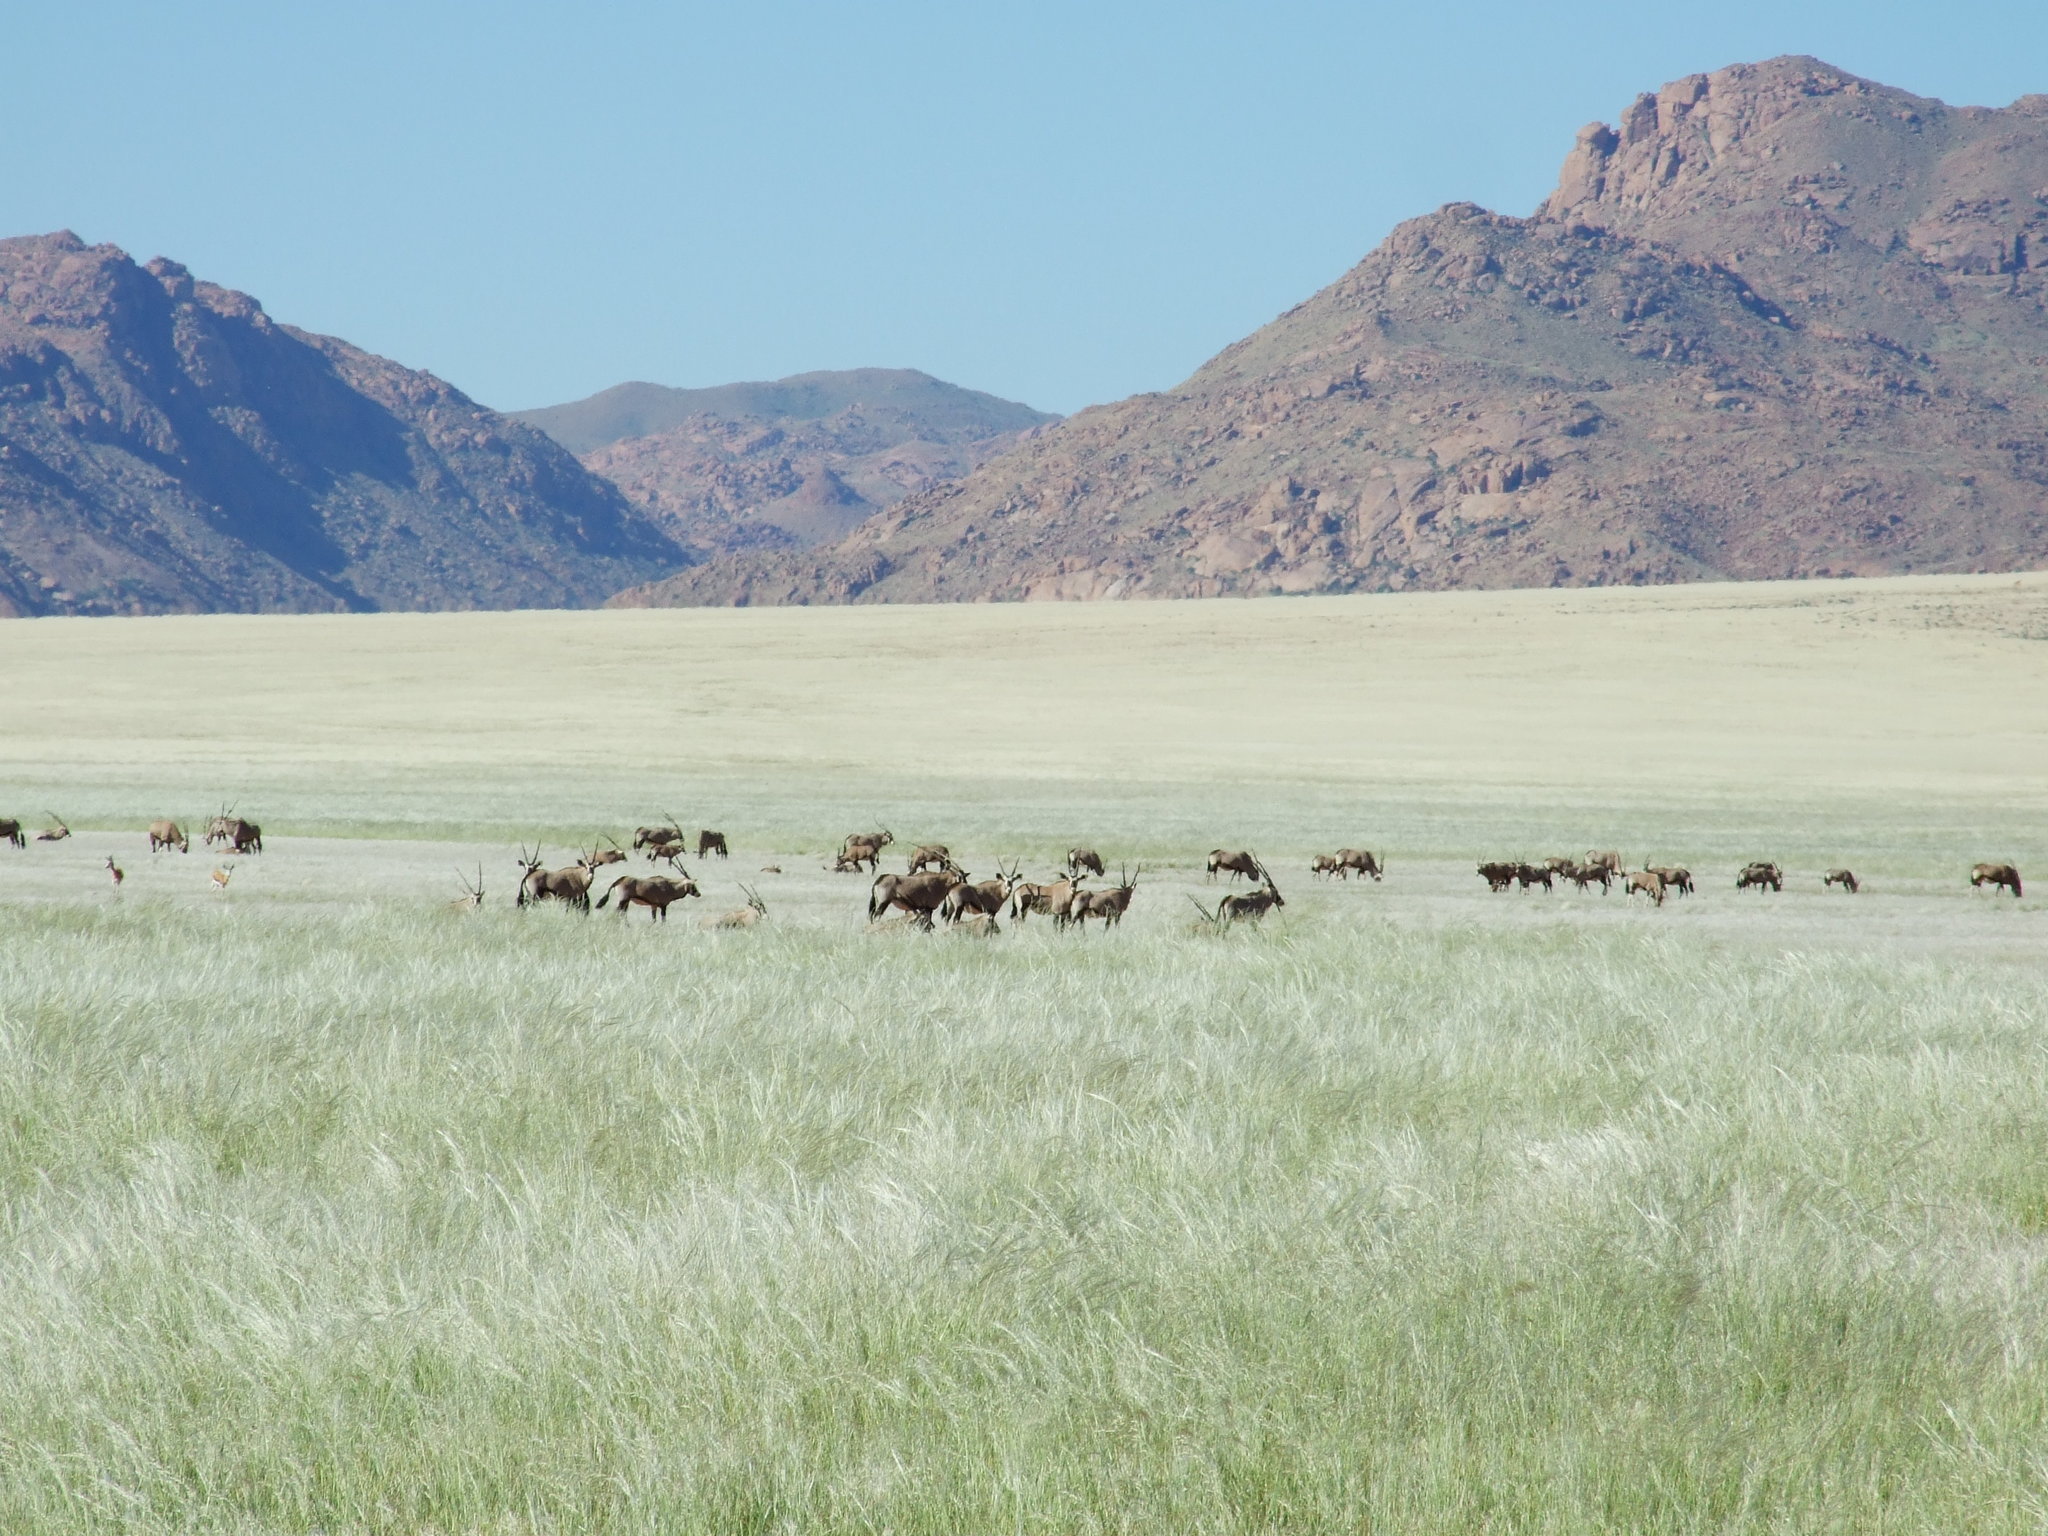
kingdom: Animalia
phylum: Chordata
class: Mammalia
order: Artiodactyla
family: Bovidae
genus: Oryx
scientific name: Oryx gazella
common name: Gemsbok
